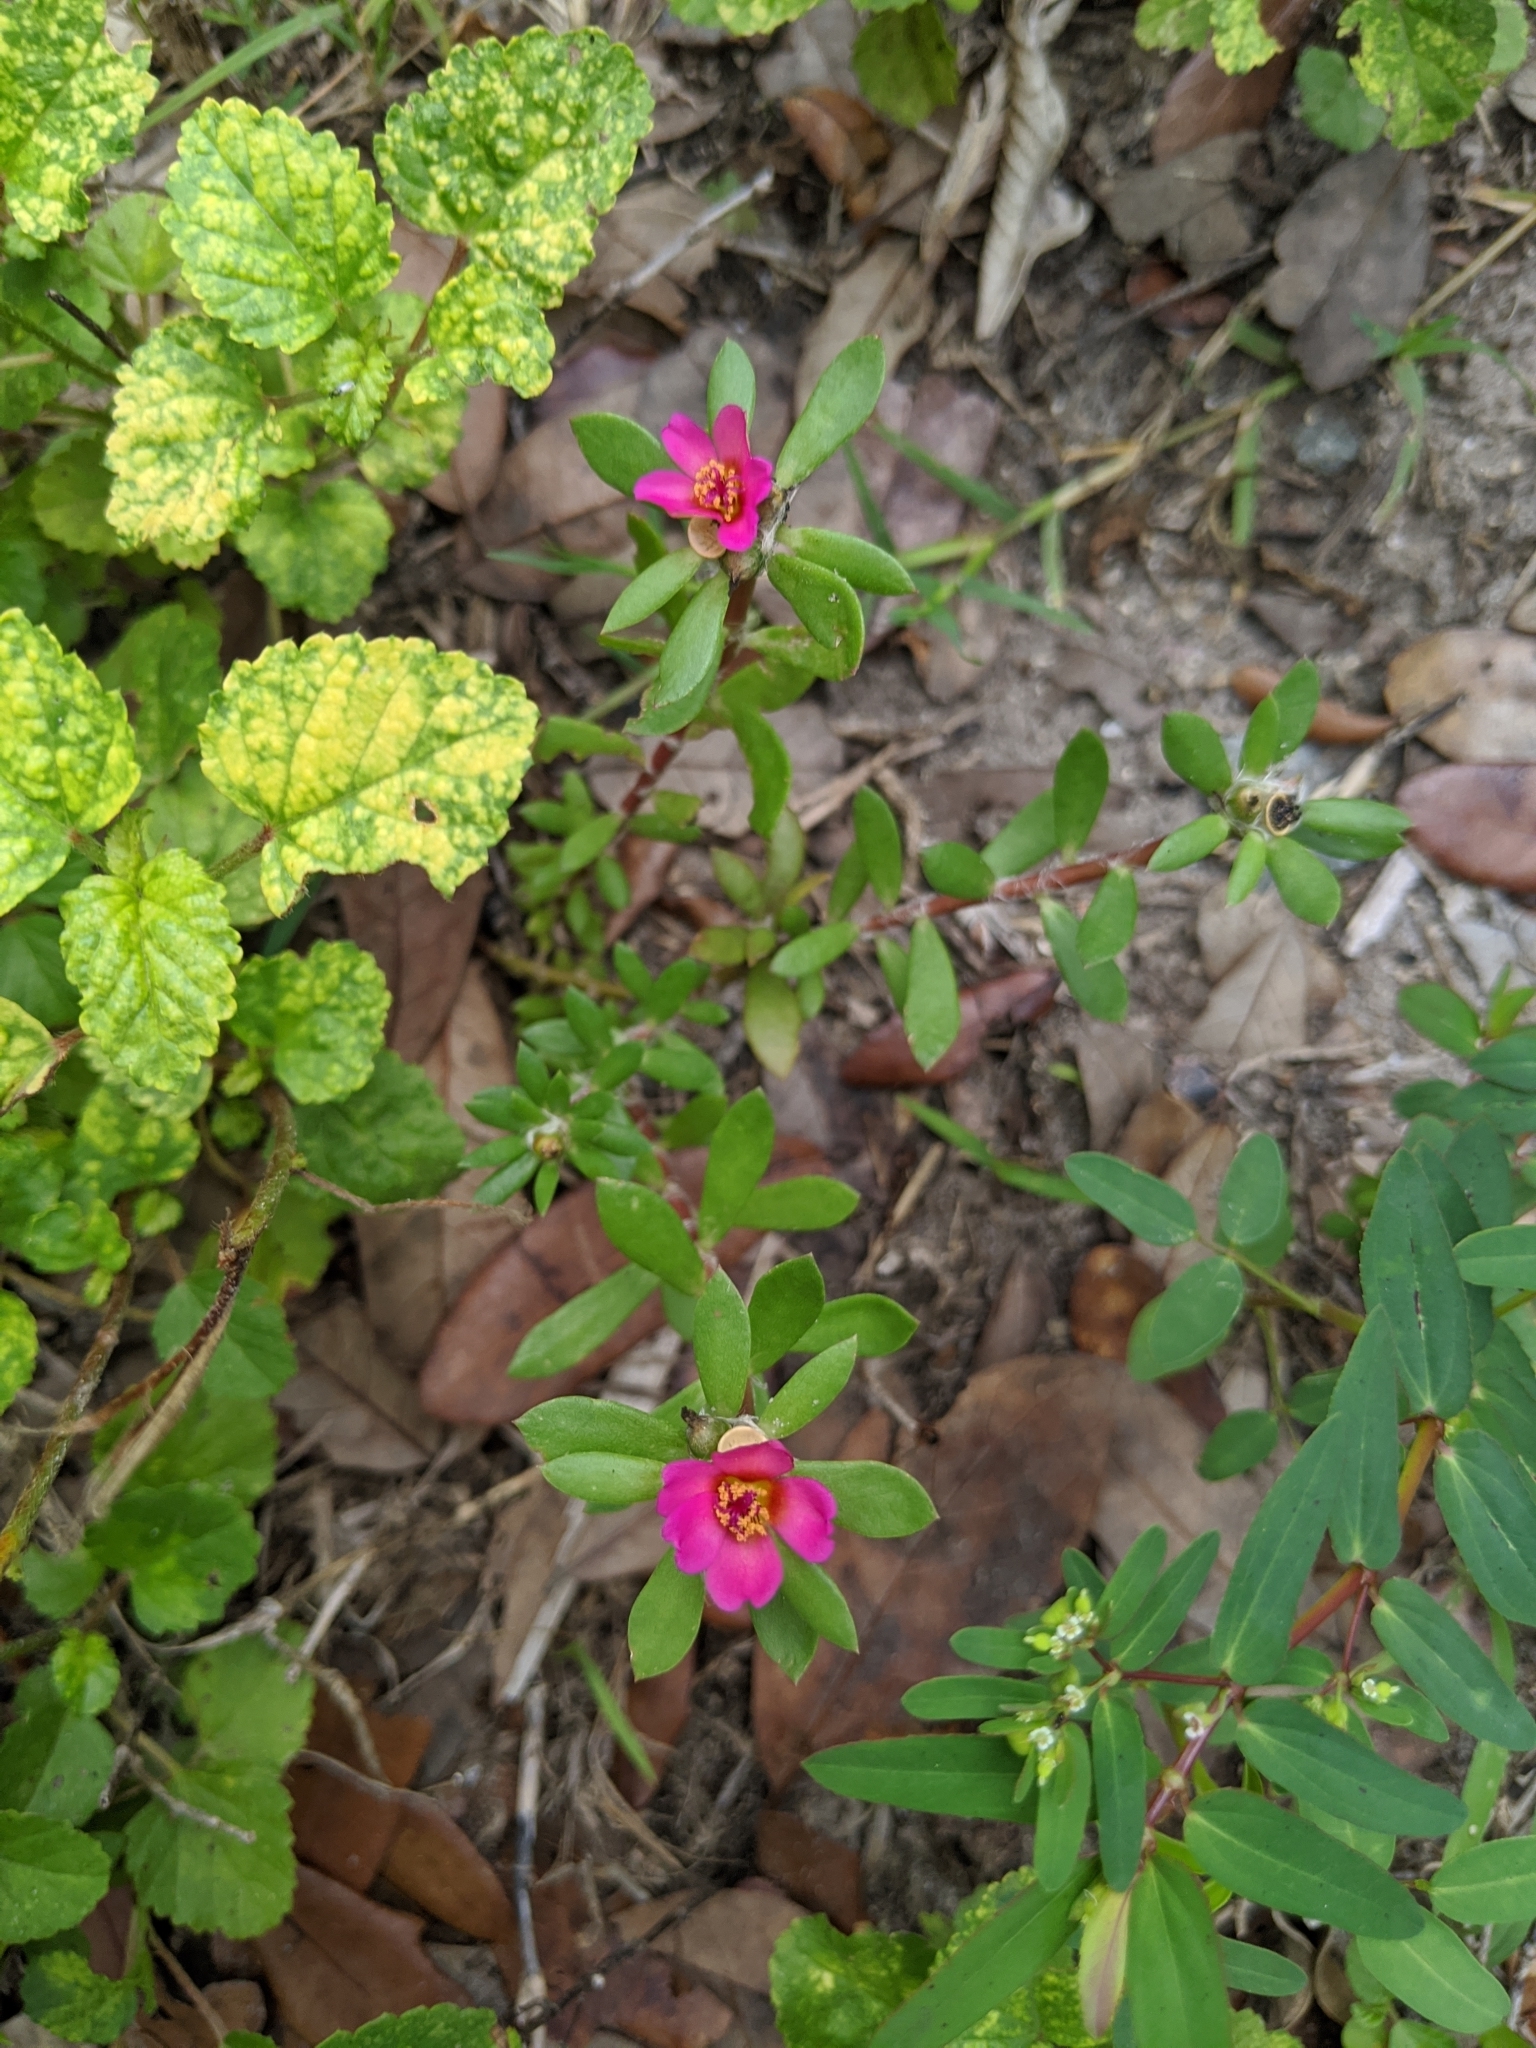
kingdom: Plantae
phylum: Tracheophyta
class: Magnoliopsida
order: Caryophyllales
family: Portulacaceae
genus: Portulaca
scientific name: Portulaca amilis
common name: Paraguayan purslane
